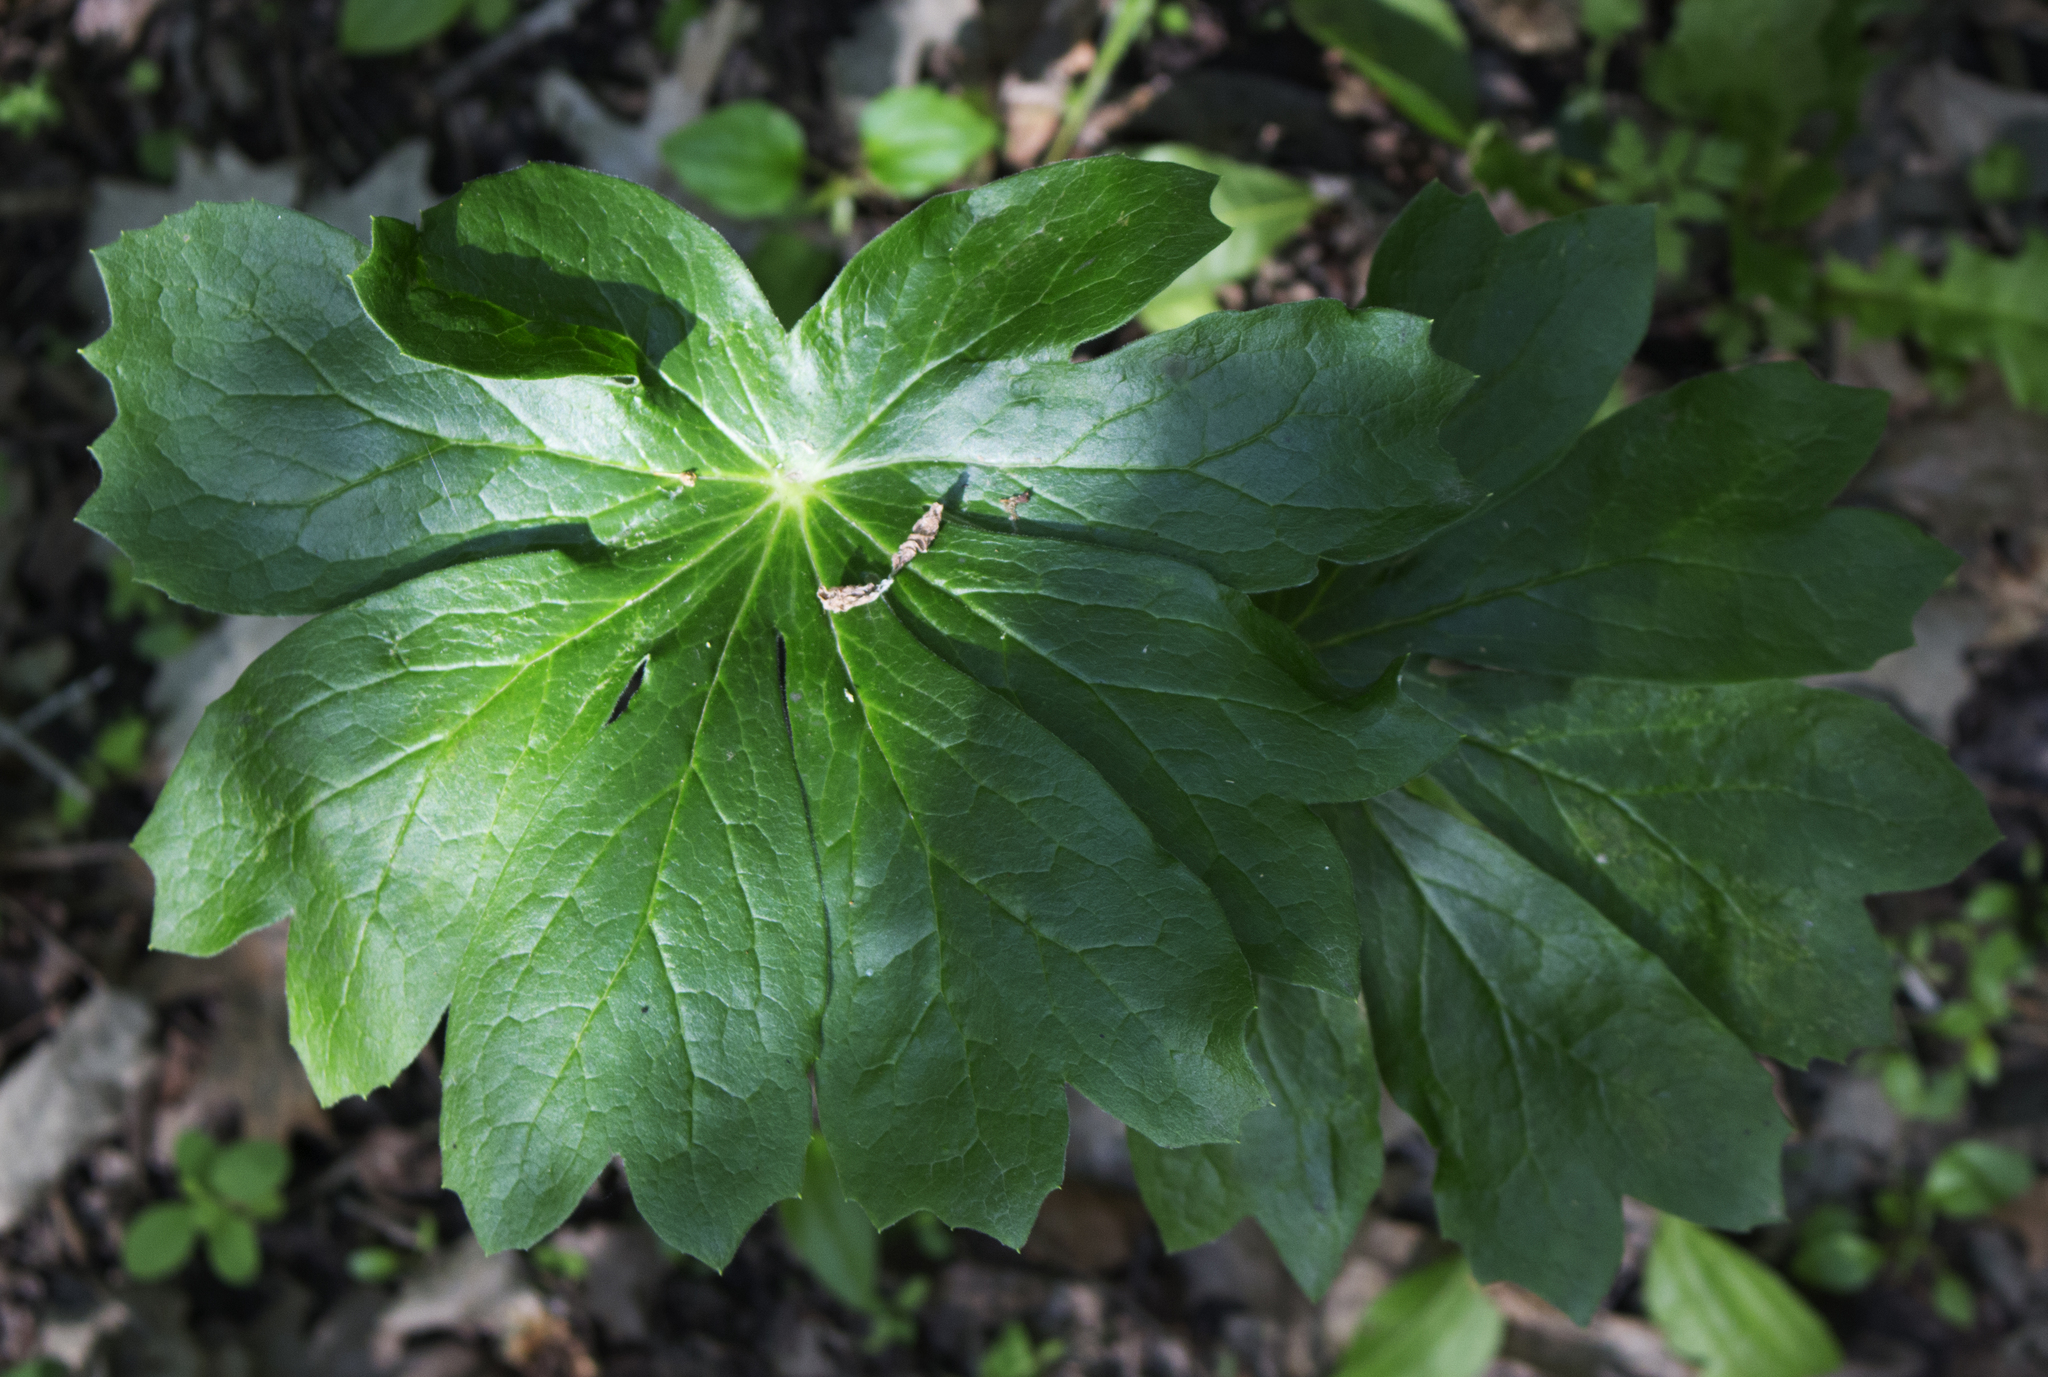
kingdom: Plantae
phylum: Tracheophyta
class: Magnoliopsida
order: Ranunculales
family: Berberidaceae
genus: Podophyllum
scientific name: Podophyllum peltatum
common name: Wild mandrake
